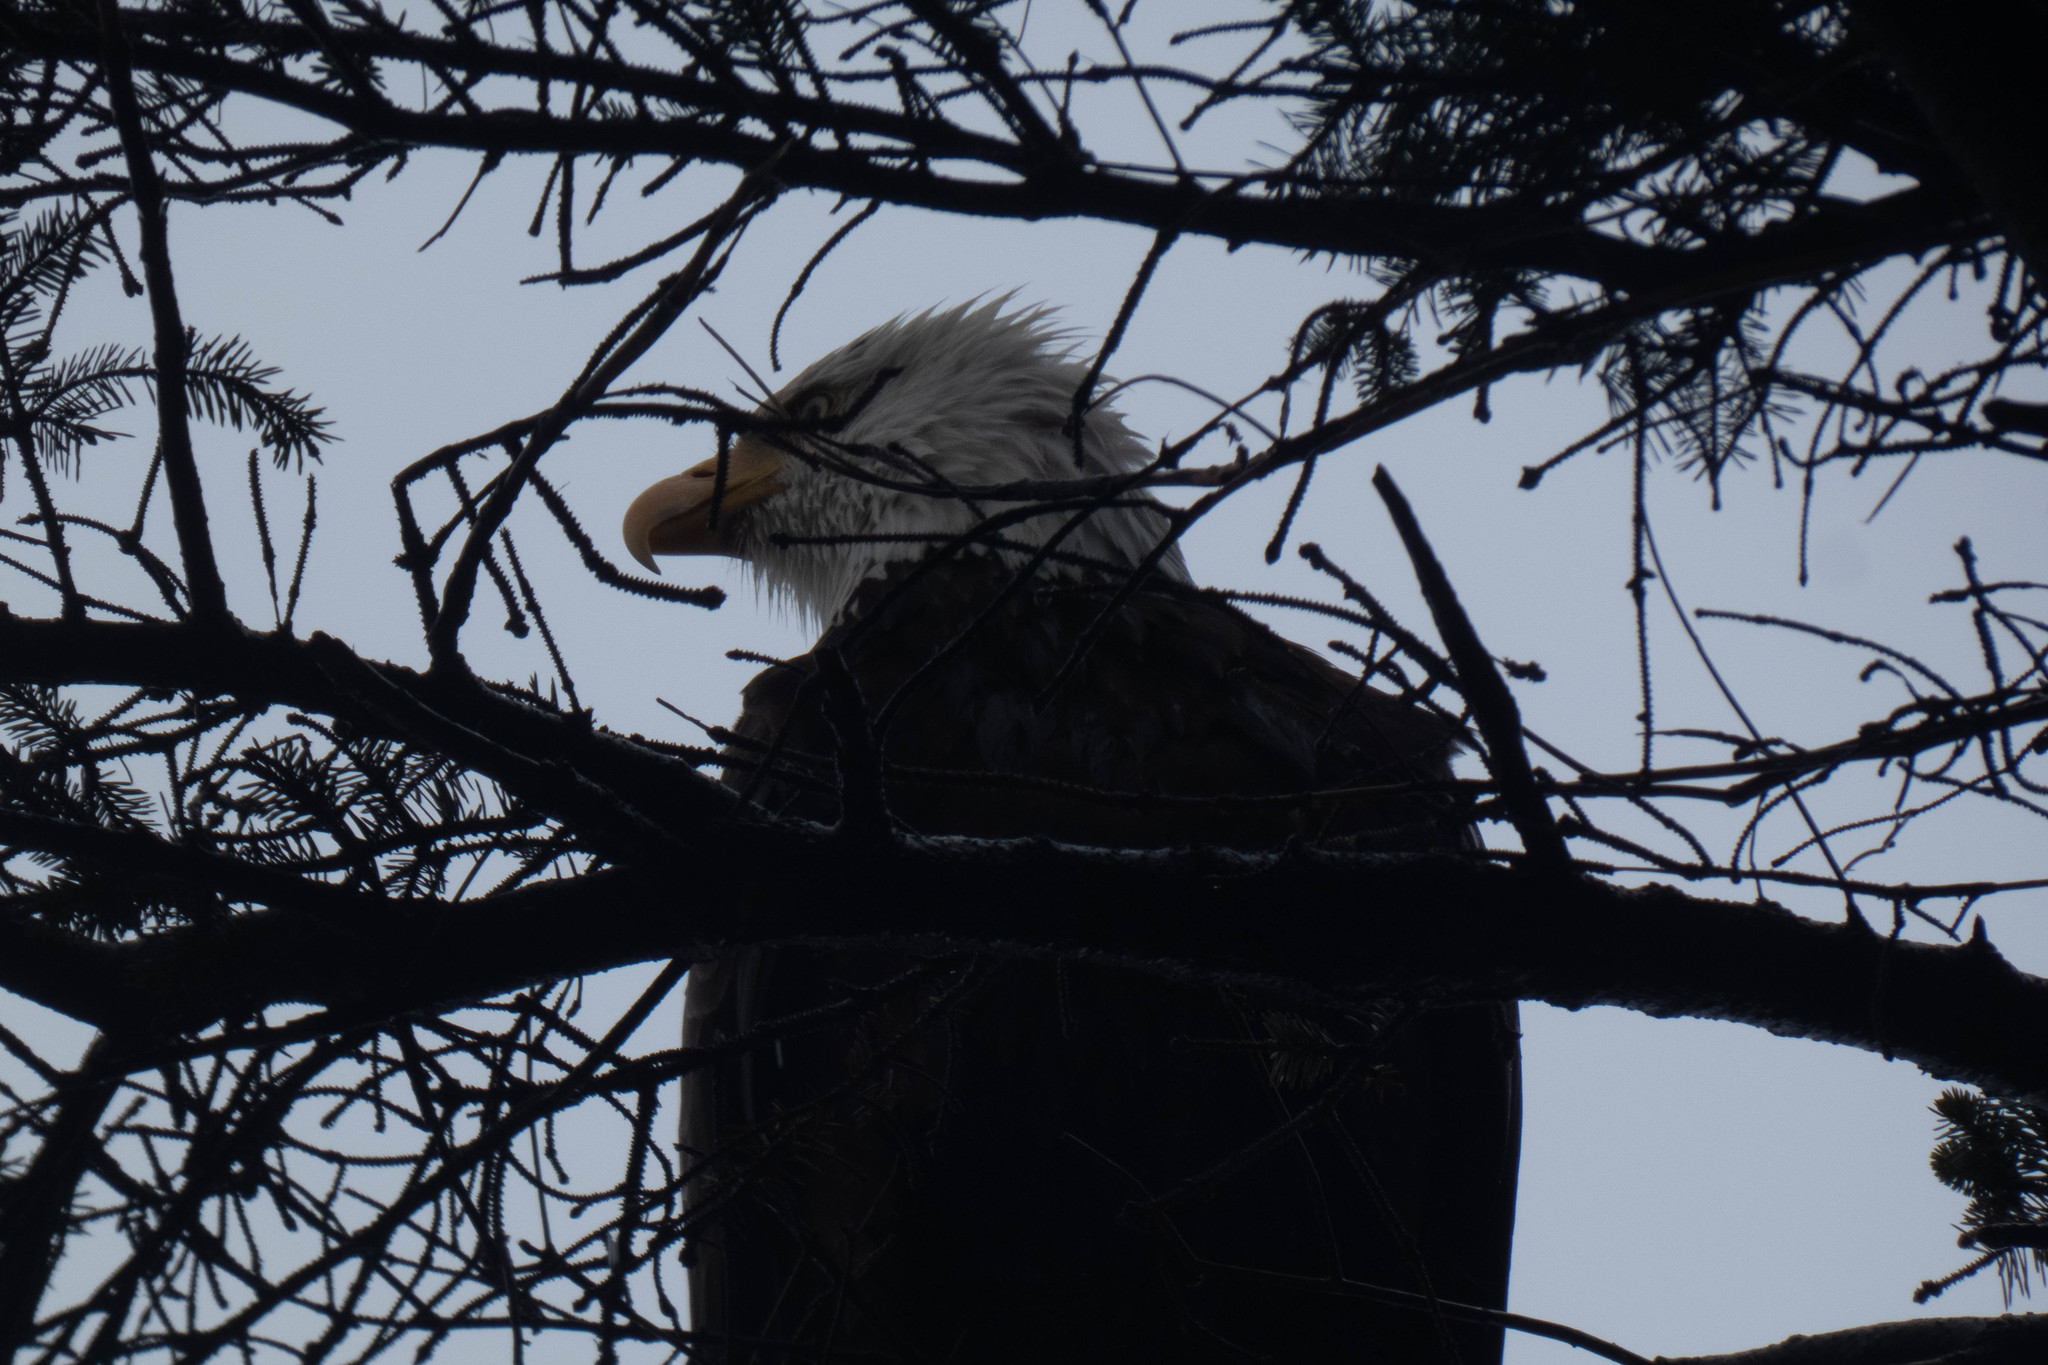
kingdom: Animalia
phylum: Chordata
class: Aves
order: Accipitriformes
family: Accipitridae
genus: Haliaeetus
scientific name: Haliaeetus leucocephalus
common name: Bald eagle
